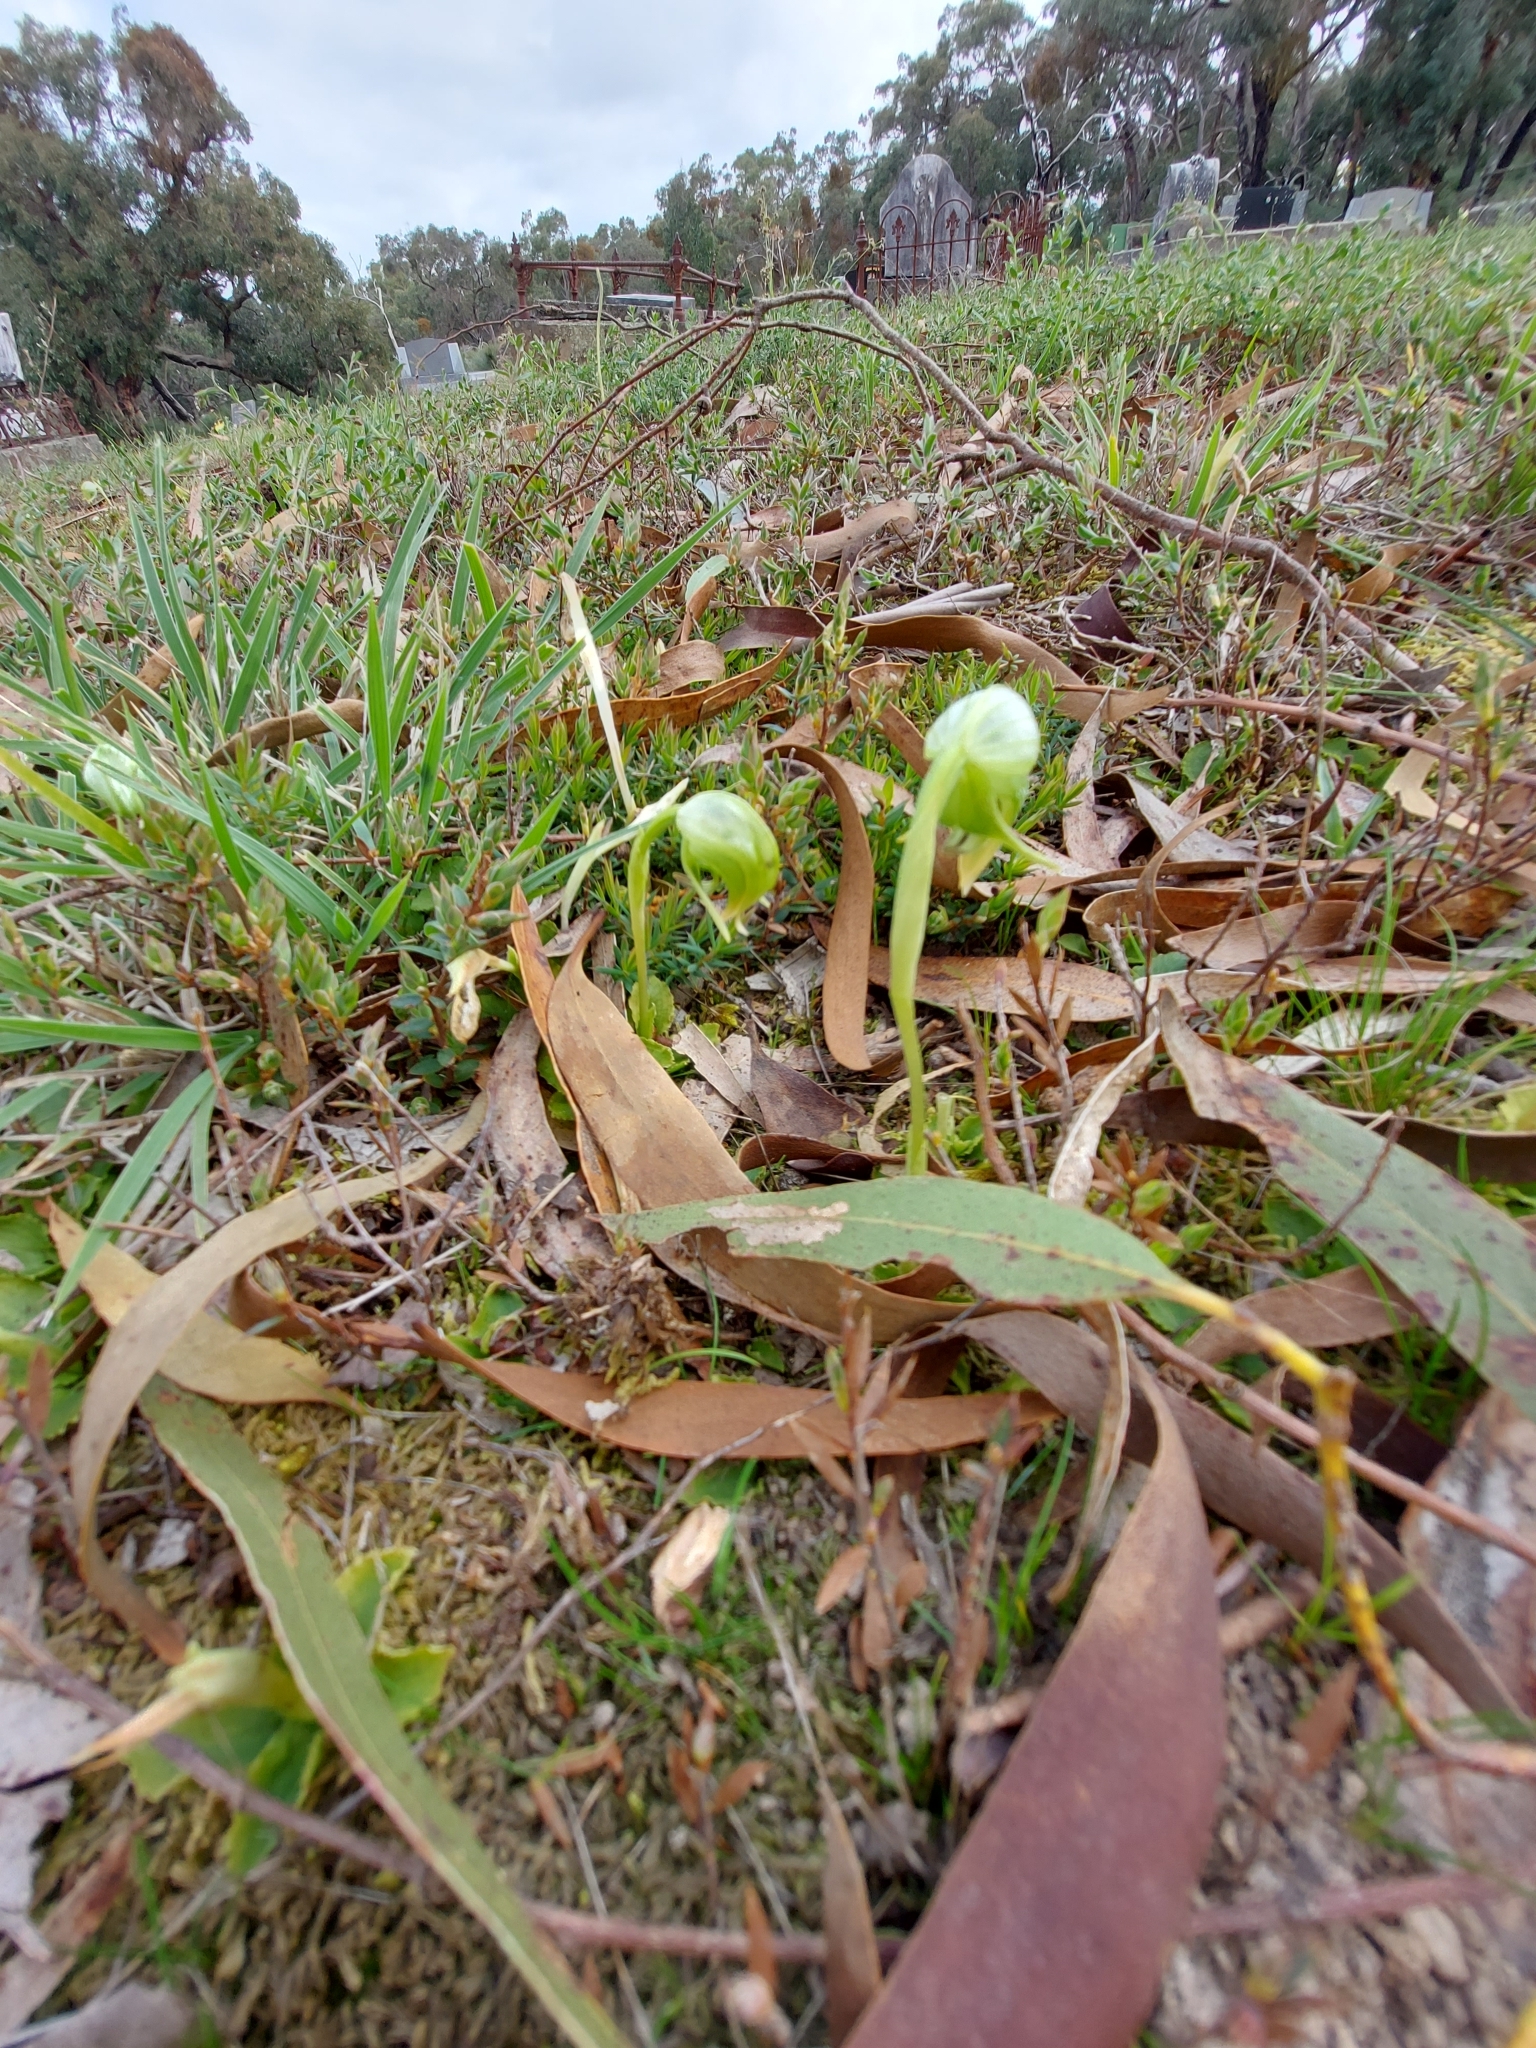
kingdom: Plantae
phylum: Tracheophyta
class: Liliopsida
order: Asparagales
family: Orchidaceae
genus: Pterostylis
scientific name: Pterostylis nutans
